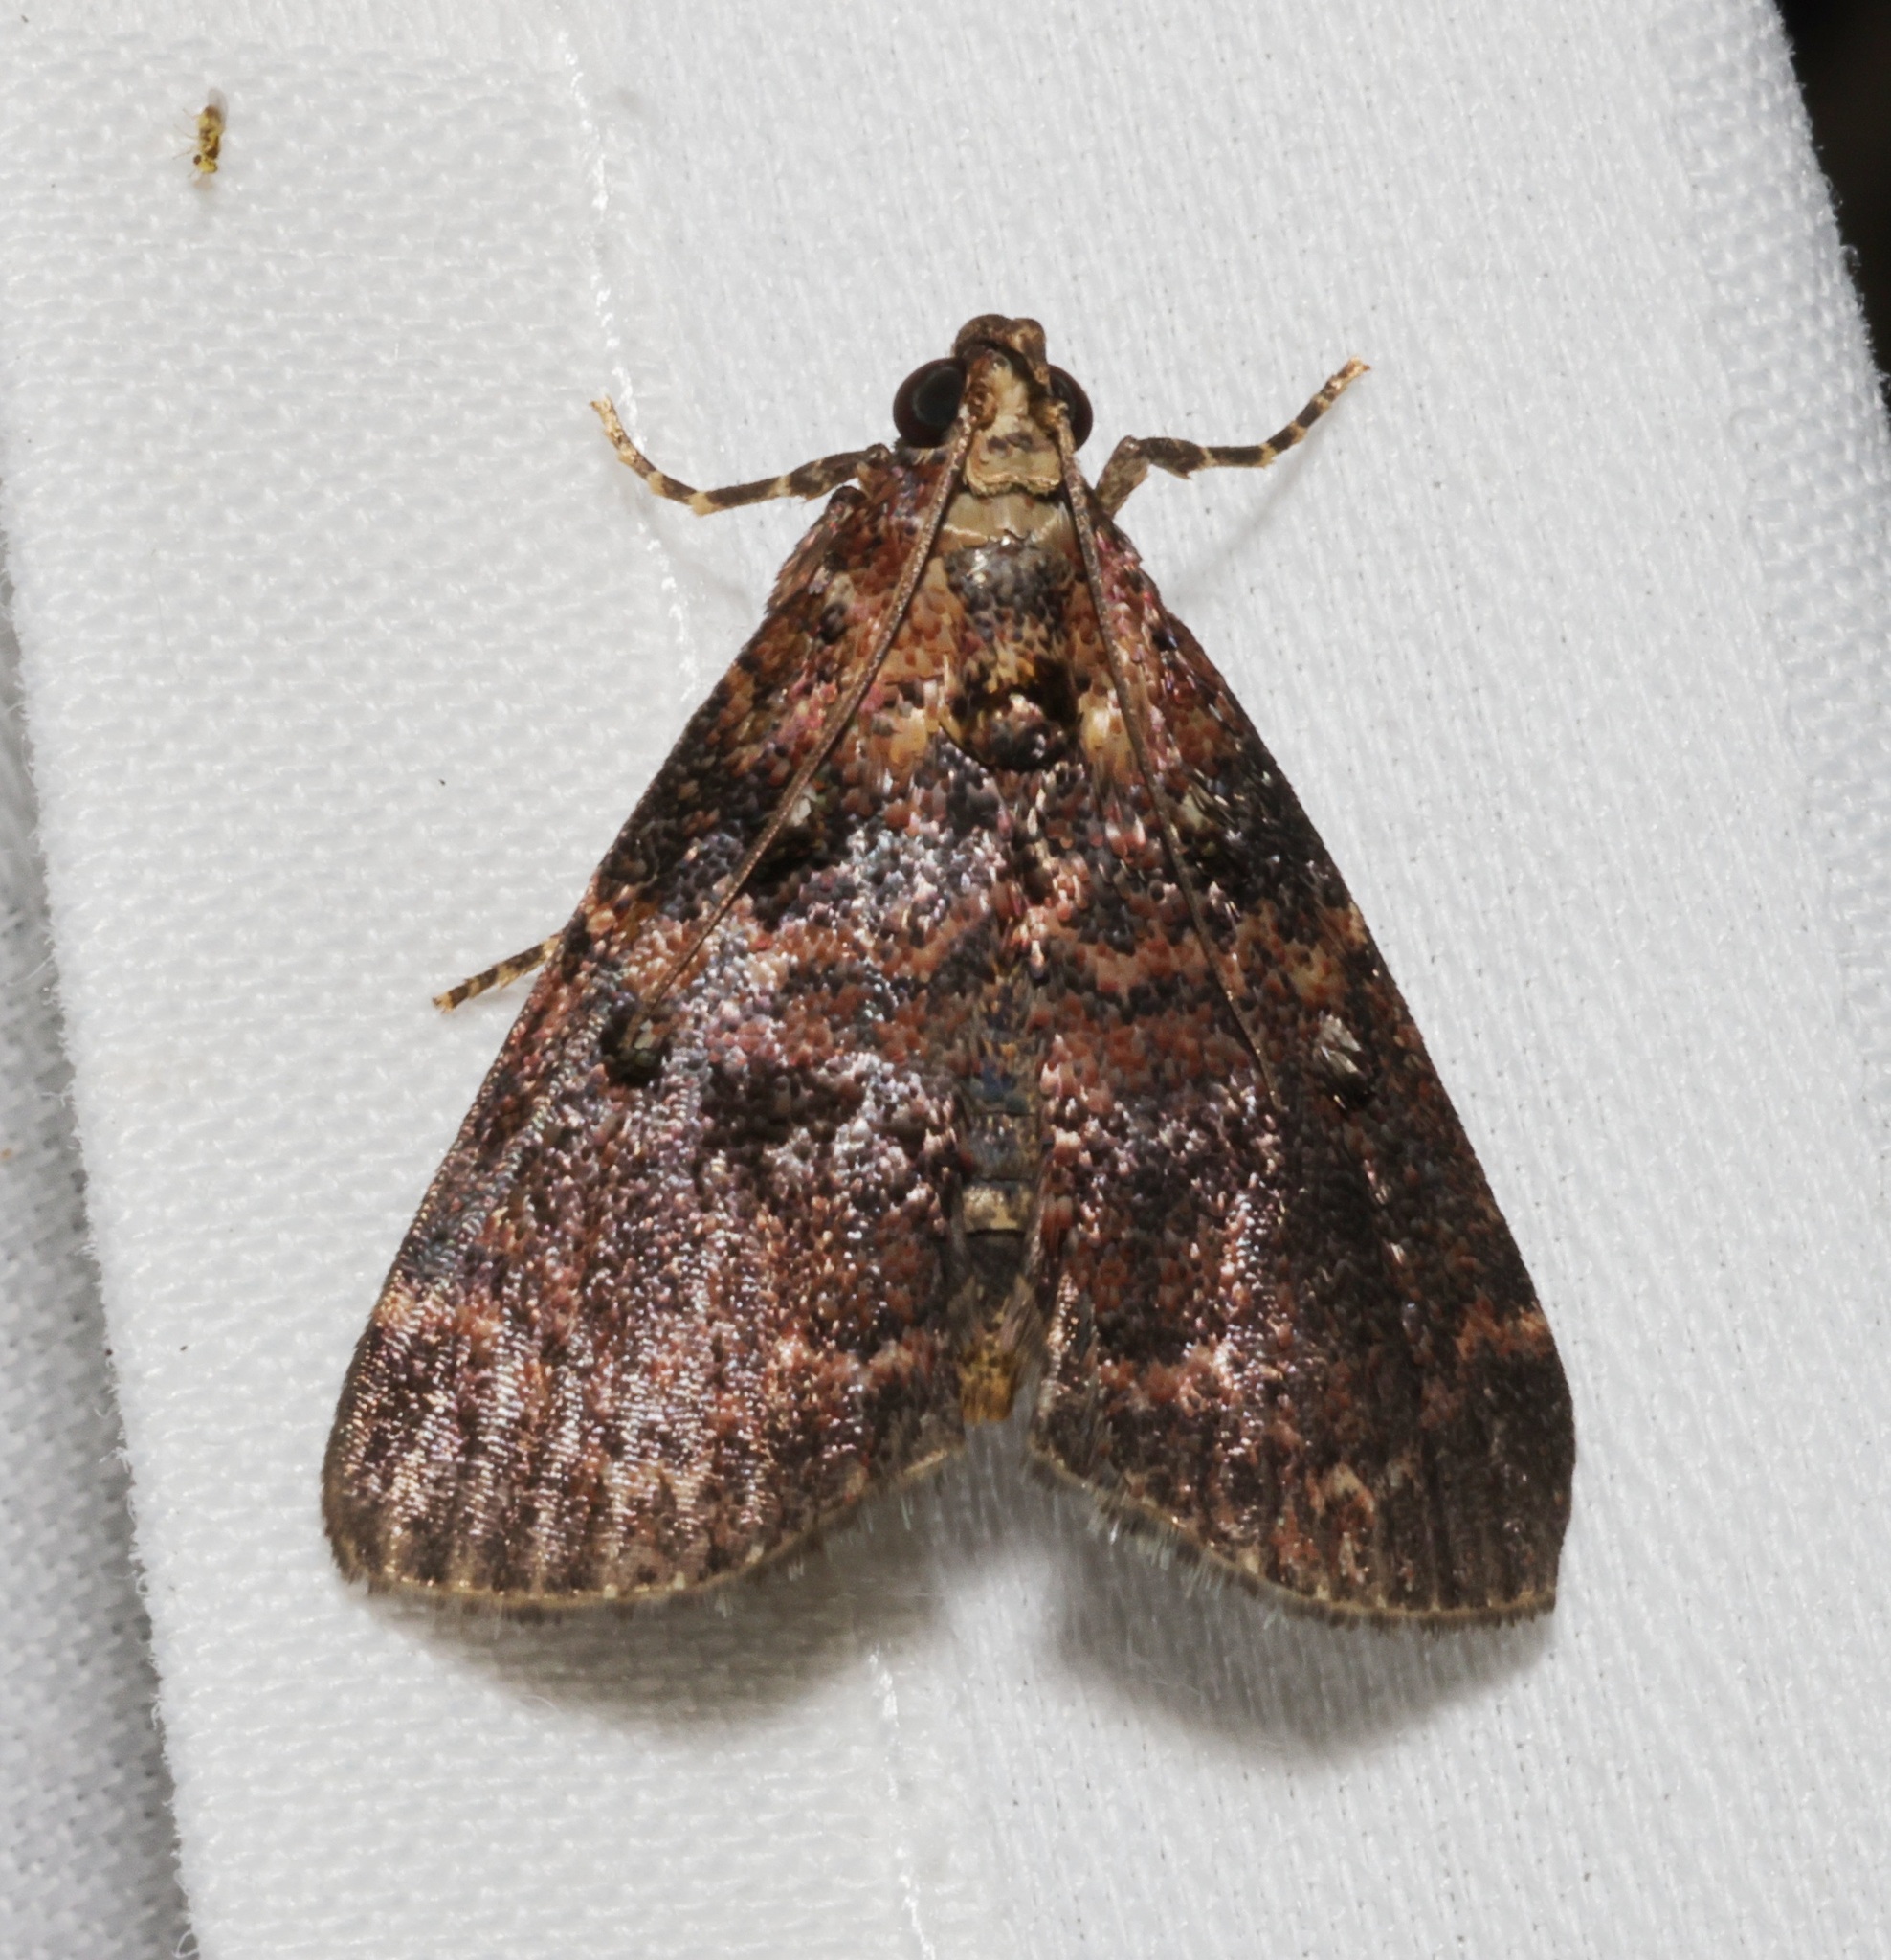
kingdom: Animalia
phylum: Arthropoda
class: Insecta
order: Lepidoptera
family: Pyralidae
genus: Salma
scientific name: Salma
